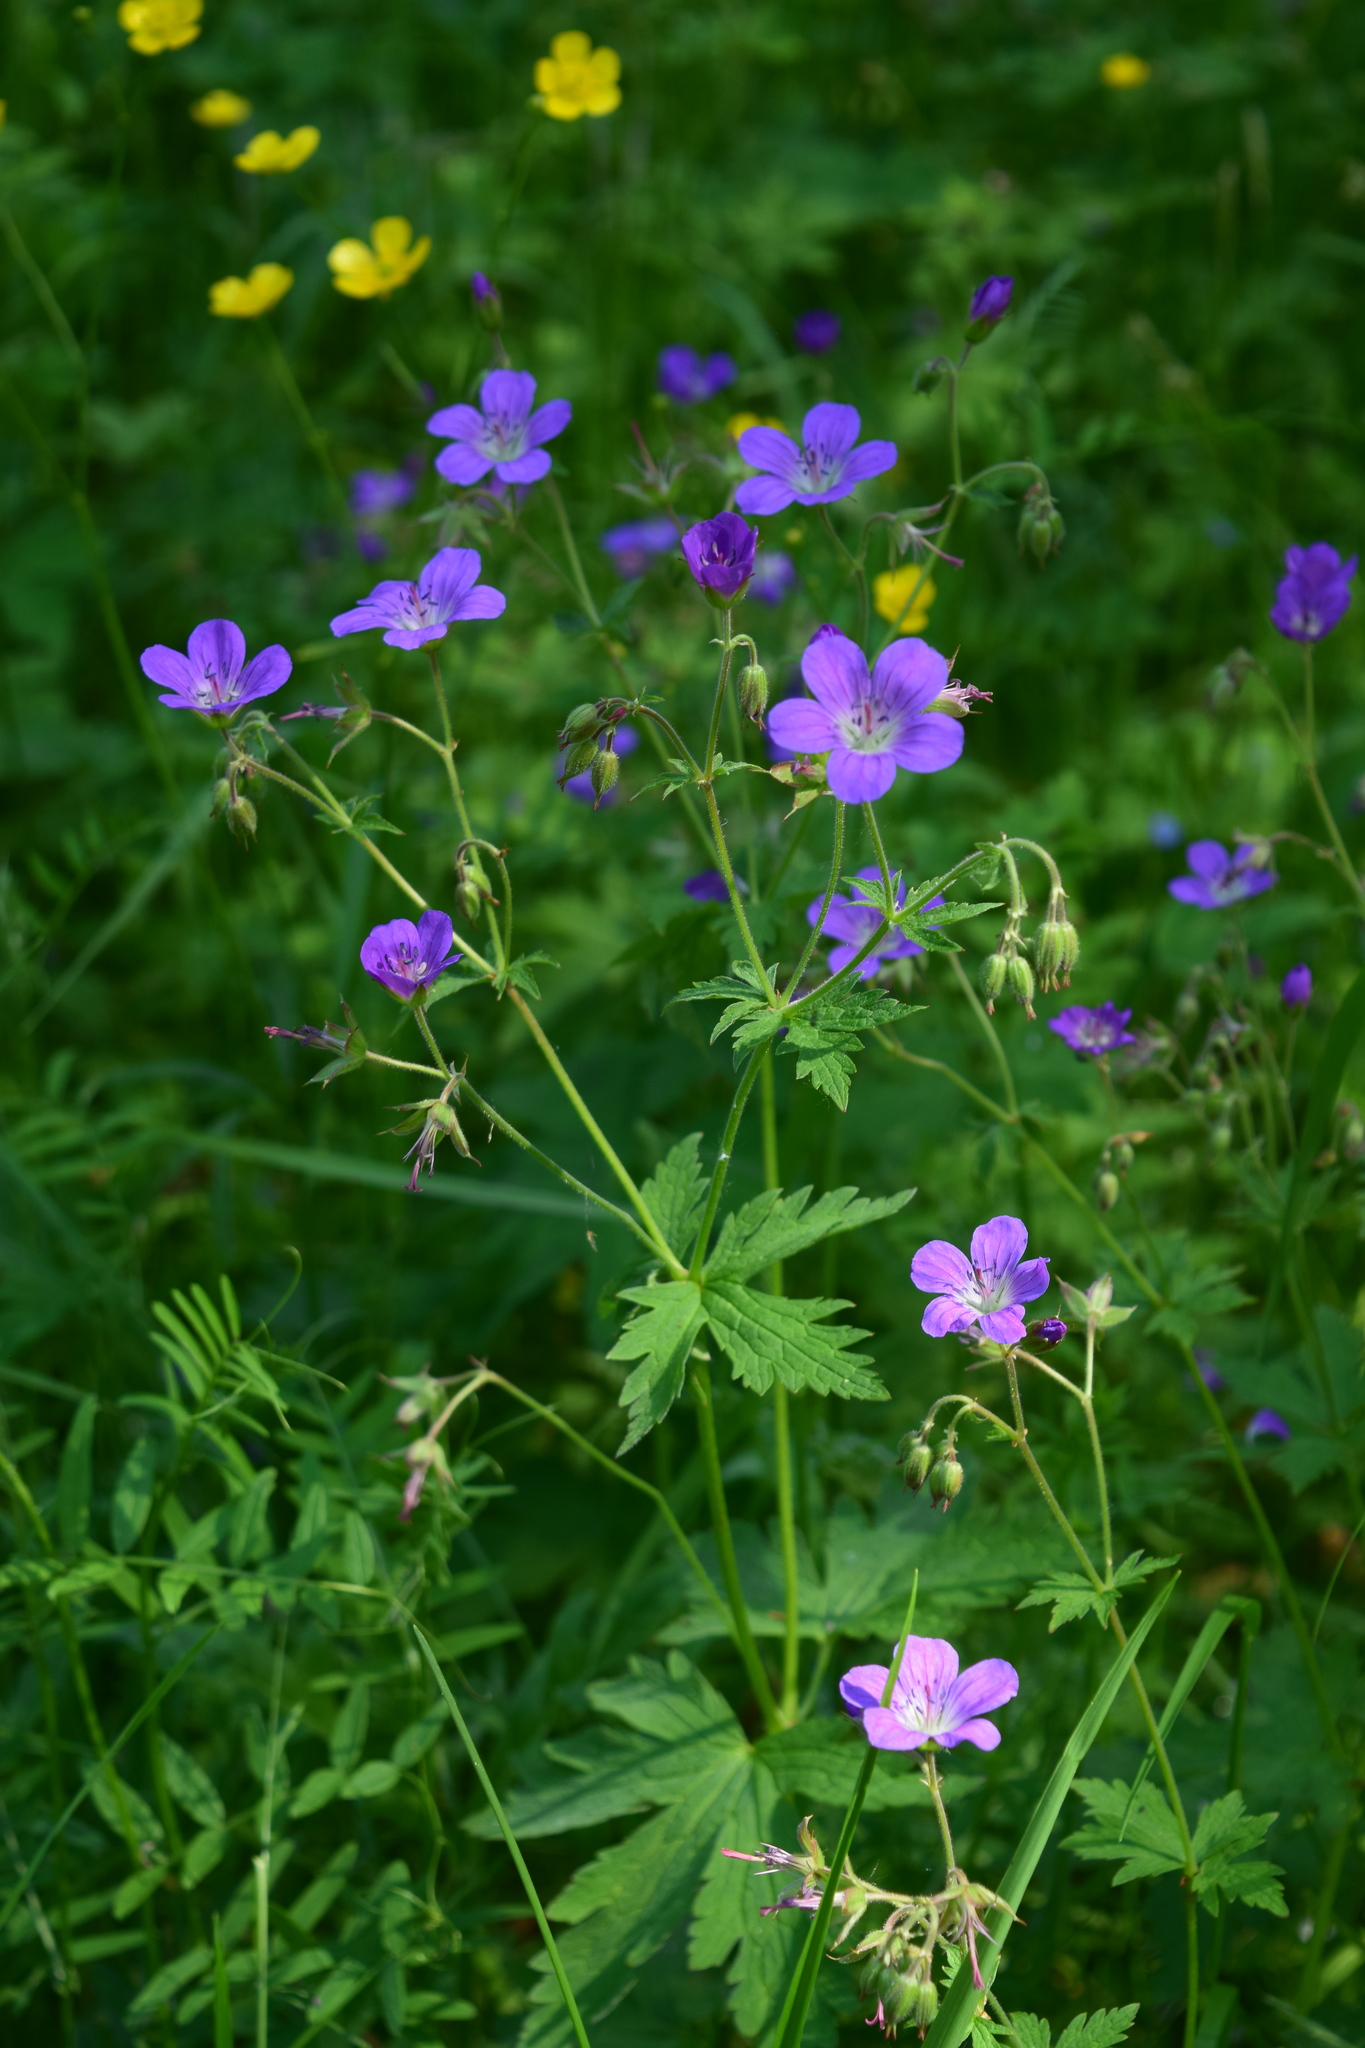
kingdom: Plantae
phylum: Tracheophyta
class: Magnoliopsida
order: Geraniales
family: Geraniaceae
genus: Geranium
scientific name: Geranium sylvaticum
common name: Wood crane's-bill
